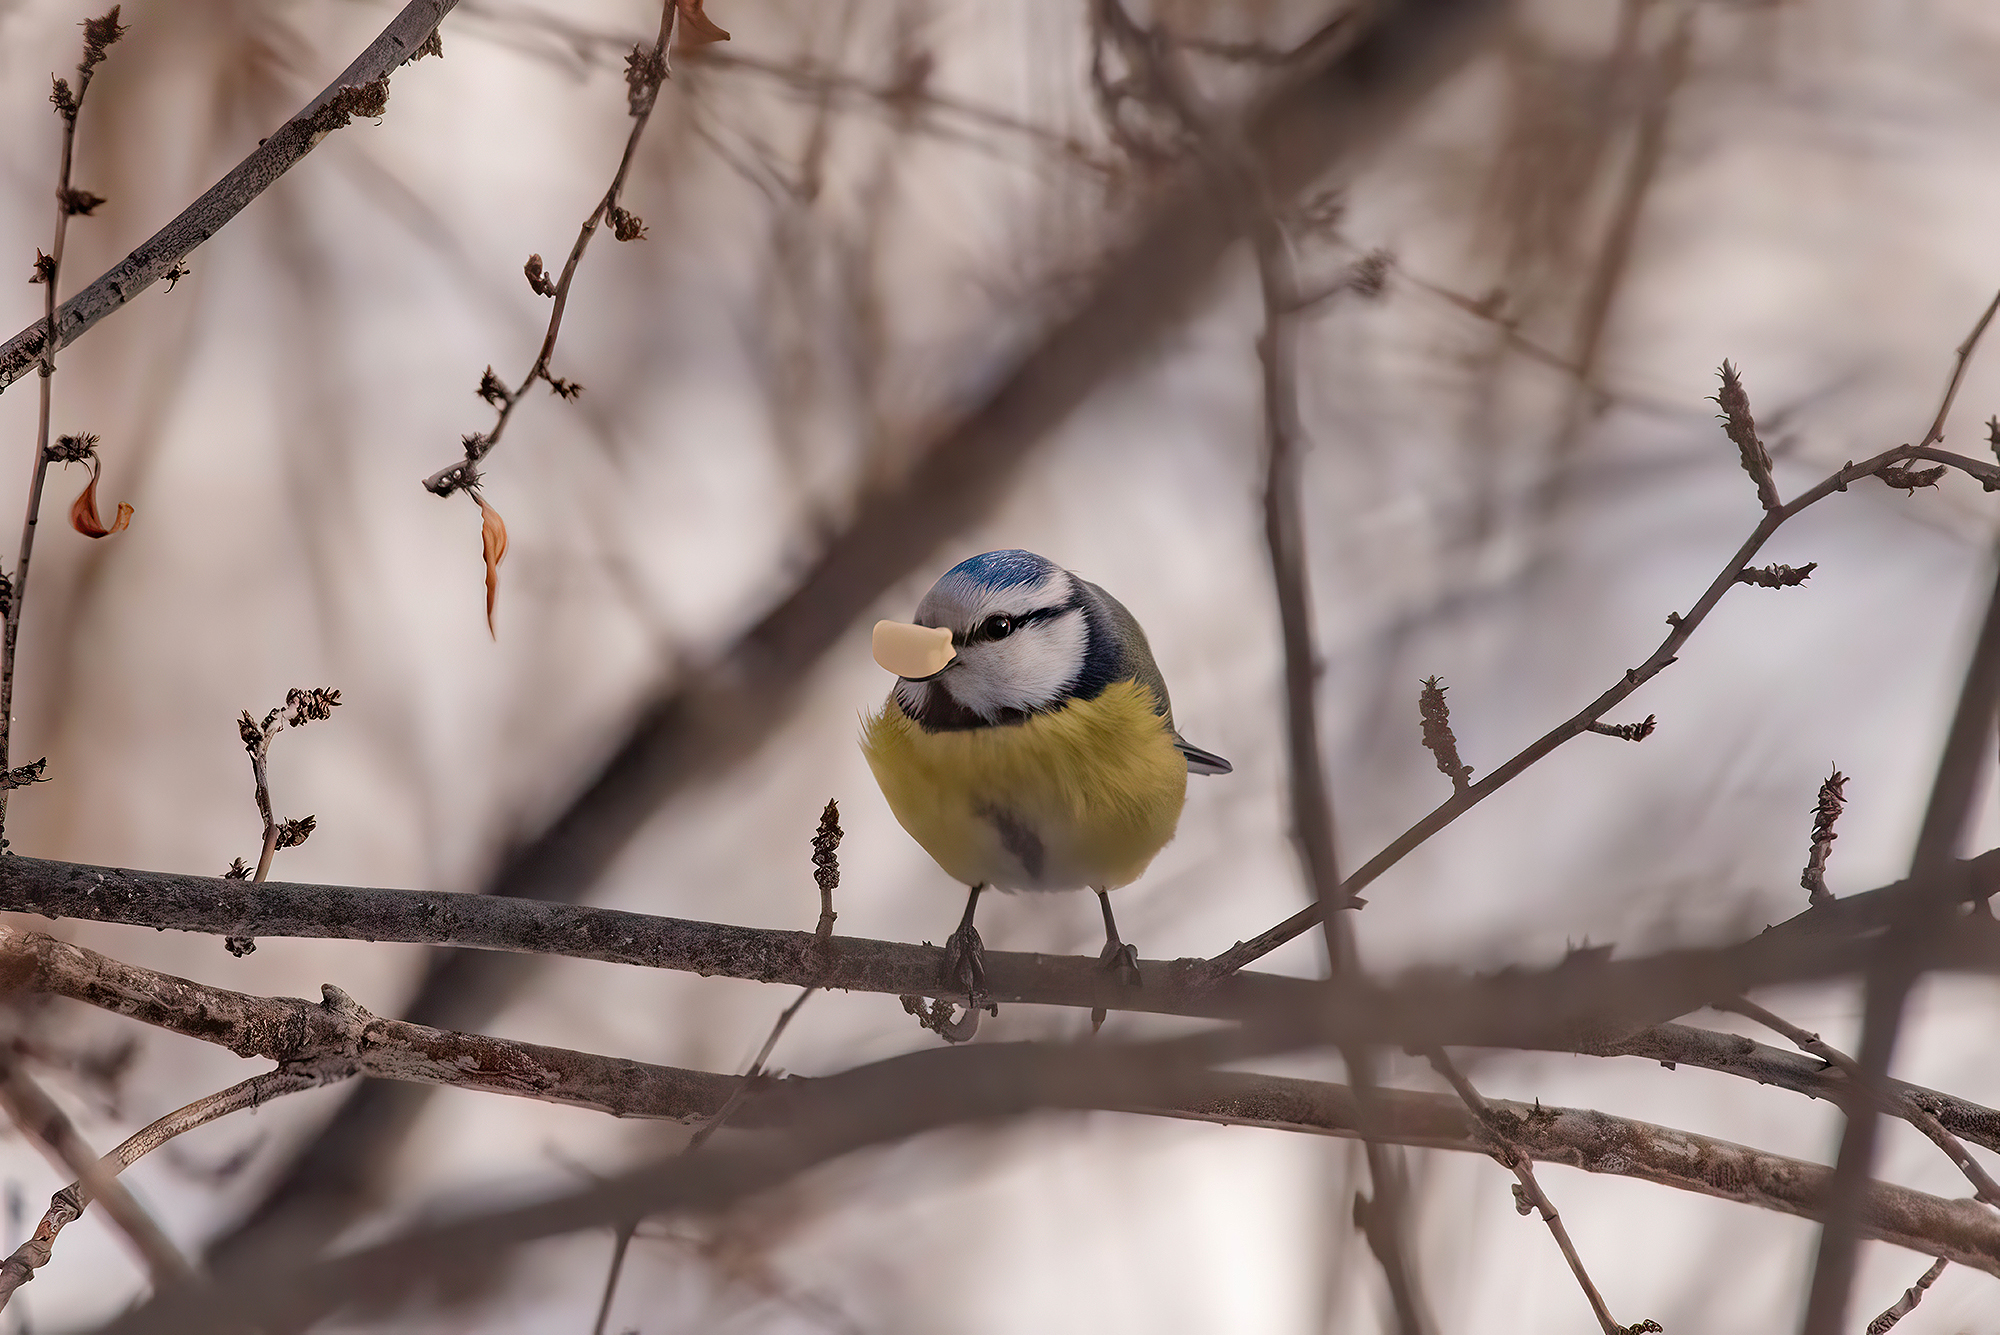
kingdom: Animalia
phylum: Chordata
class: Aves
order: Passeriformes
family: Paridae
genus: Cyanistes
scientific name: Cyanistes caeruleus
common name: Eurasian blue tit
